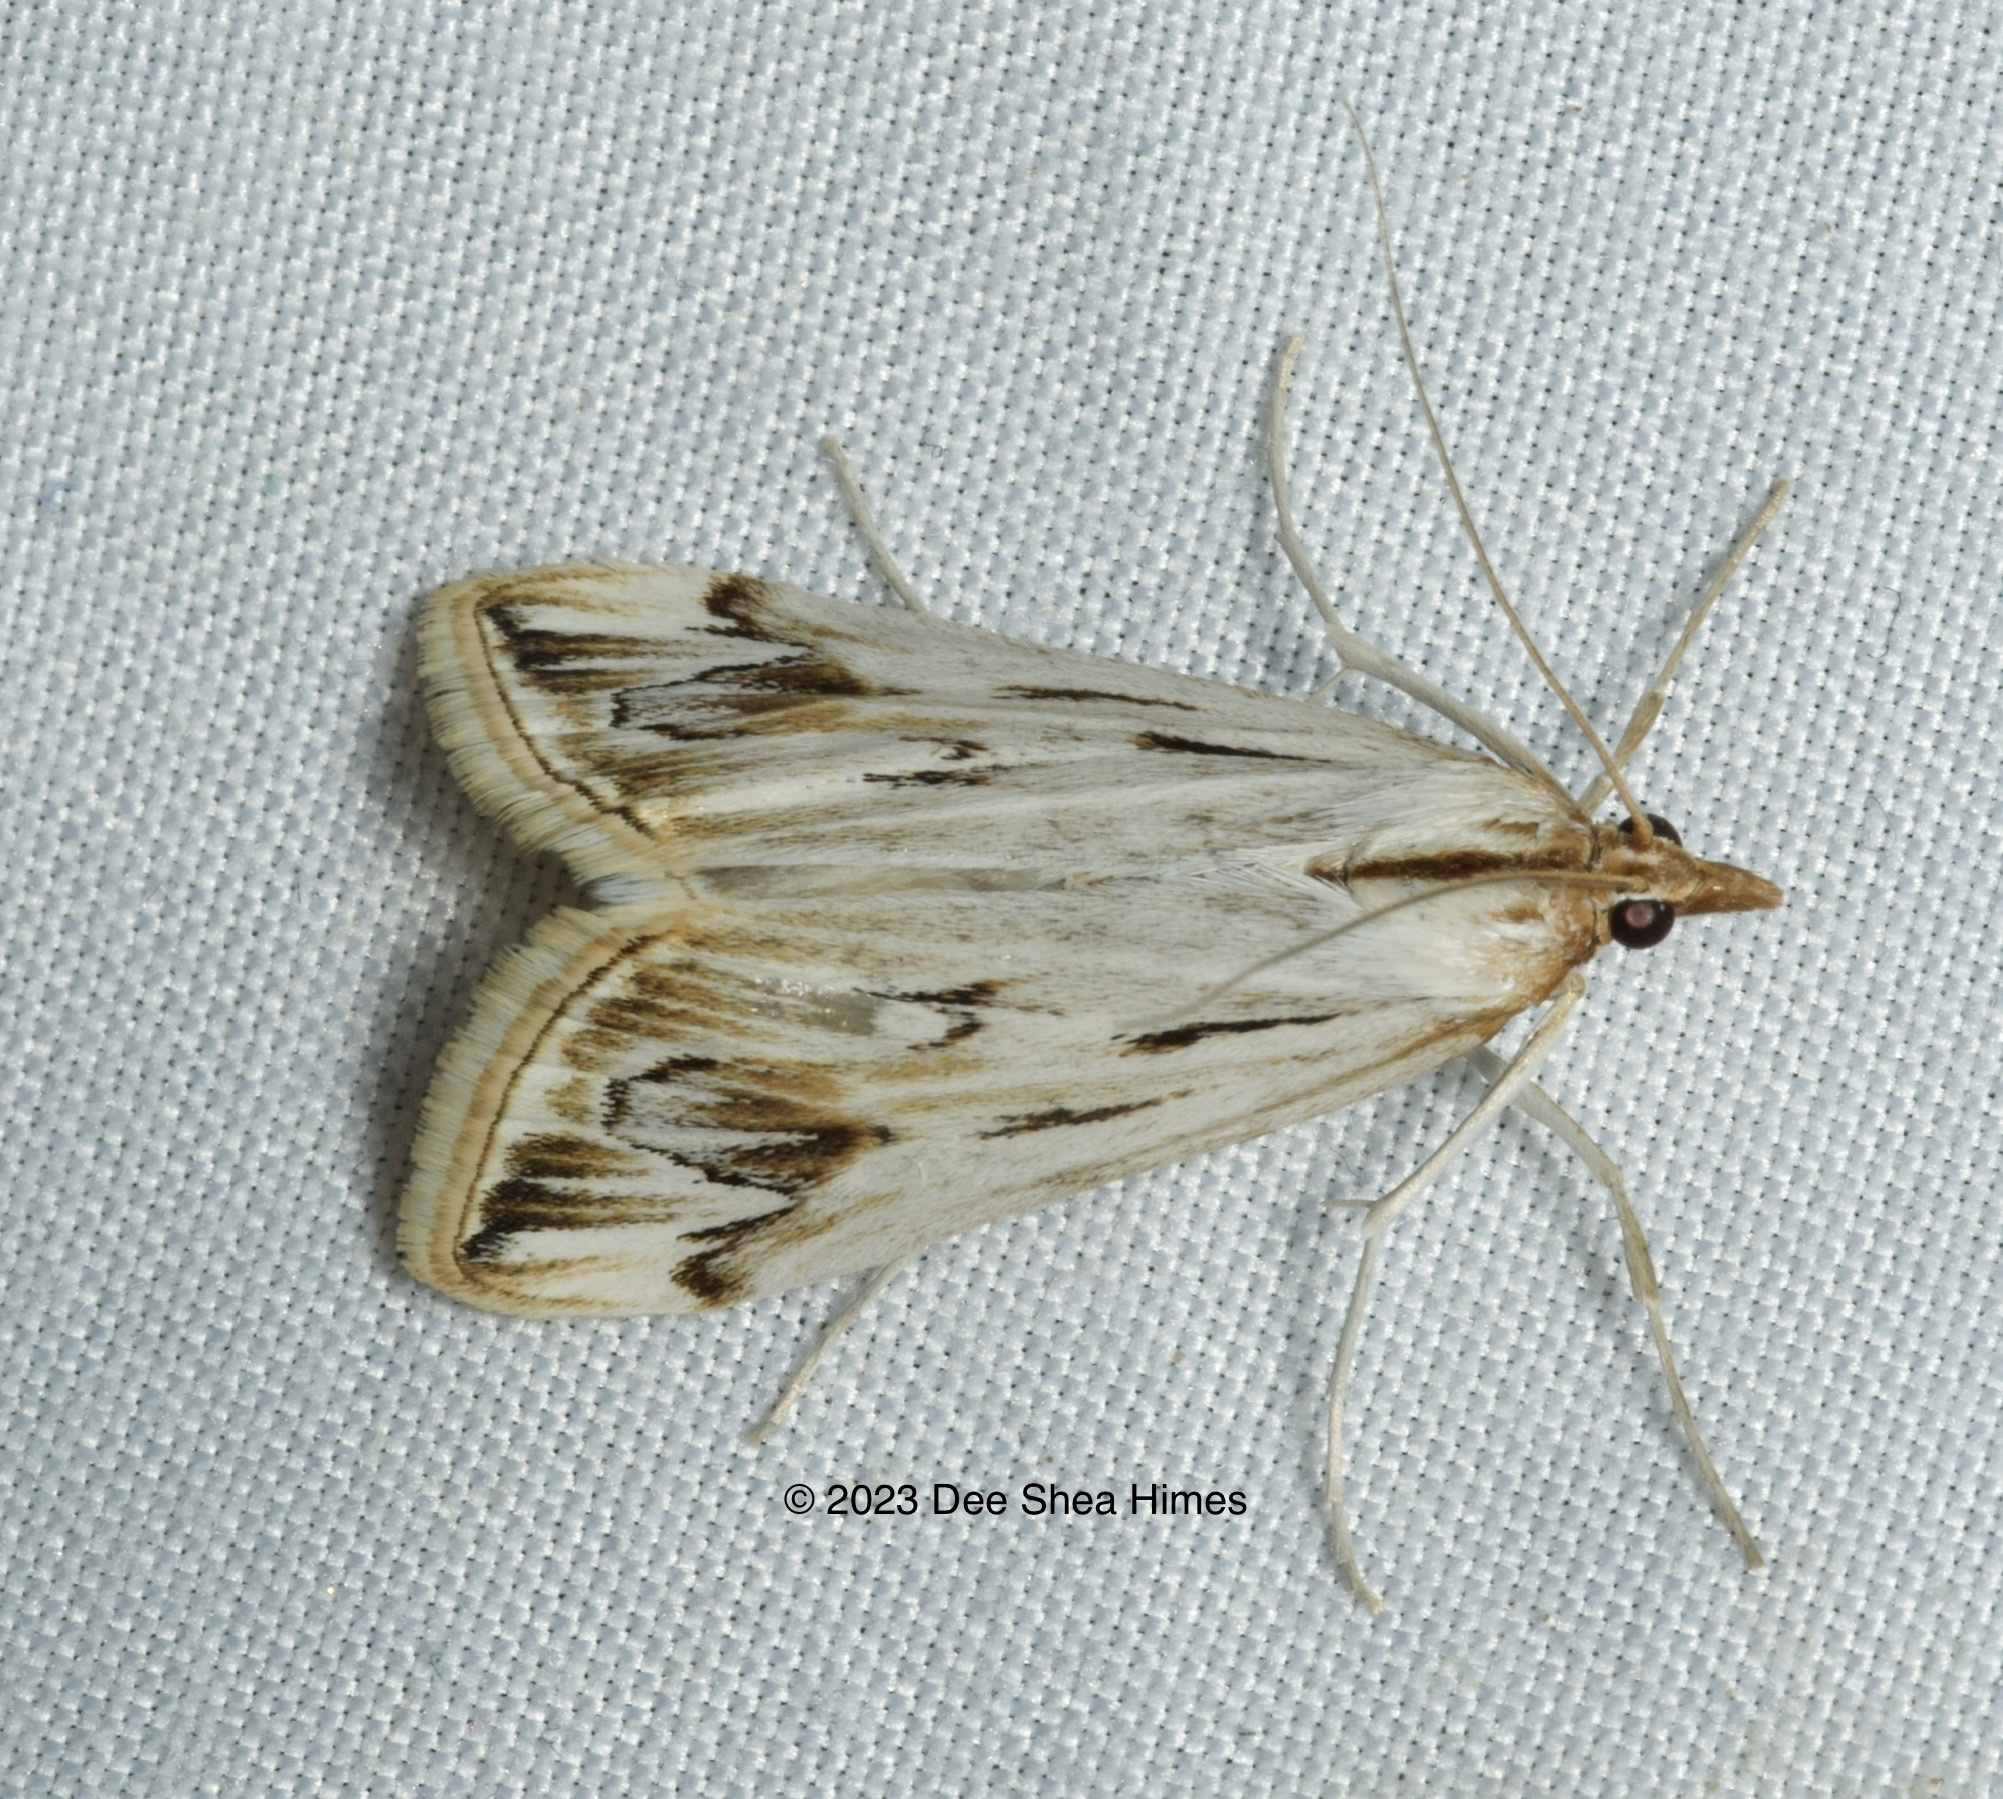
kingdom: Animalia
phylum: Arthropoda
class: Insecta
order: Lepidoptera
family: Crambidae
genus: Loxostege
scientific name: Loxostege oberthuralis
